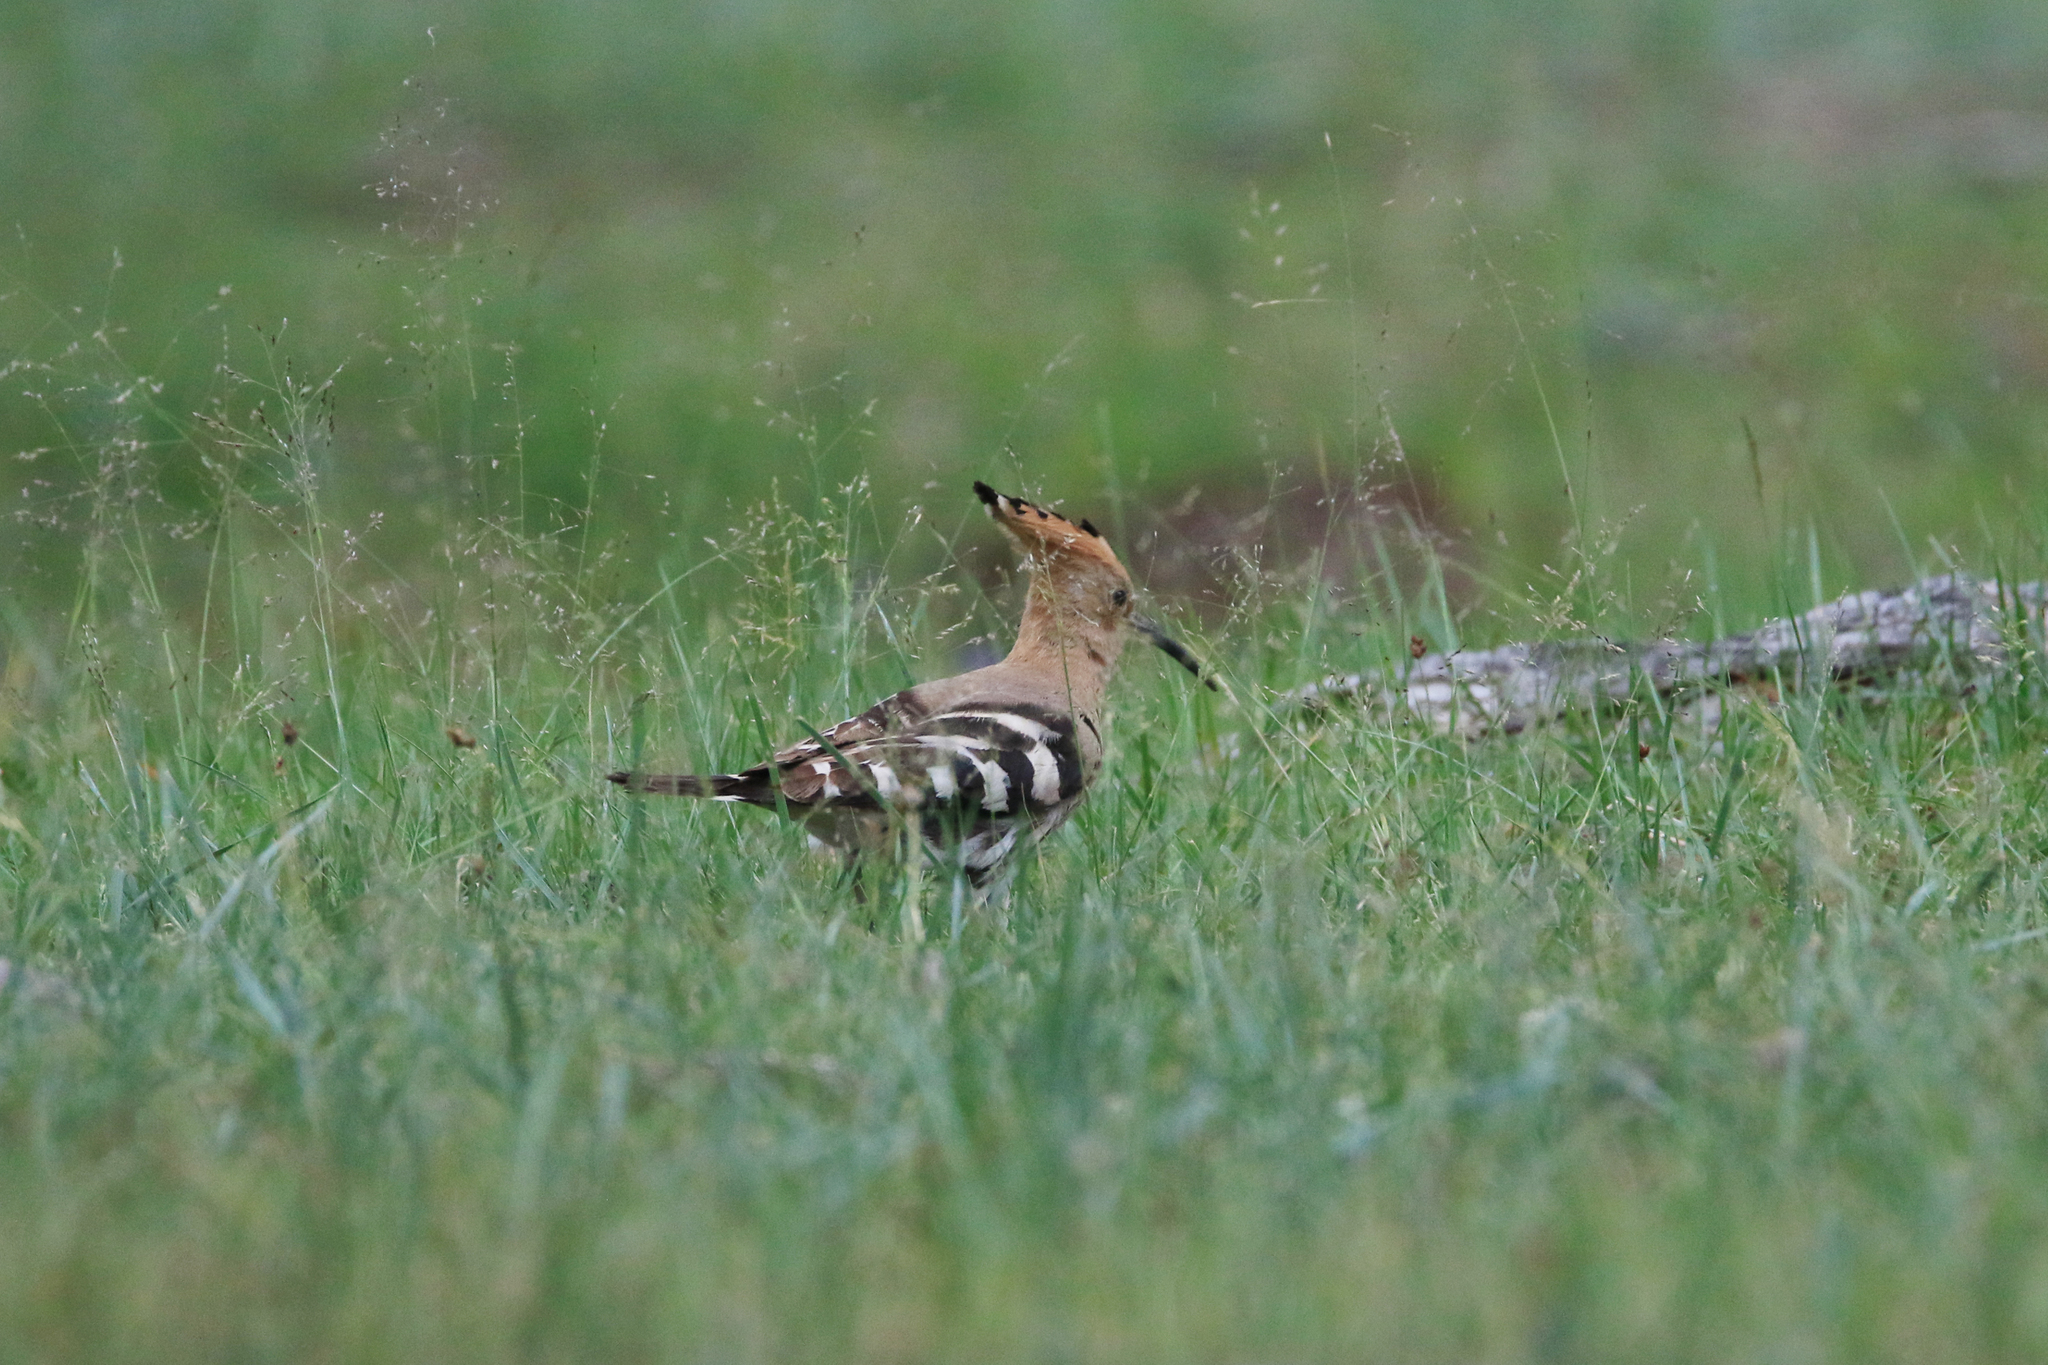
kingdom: Animalia
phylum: Chordata
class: Aves
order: Bucerotiformes
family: Upupidae
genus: Upupa
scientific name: Upupa epops
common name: Eurasian hoopoe
